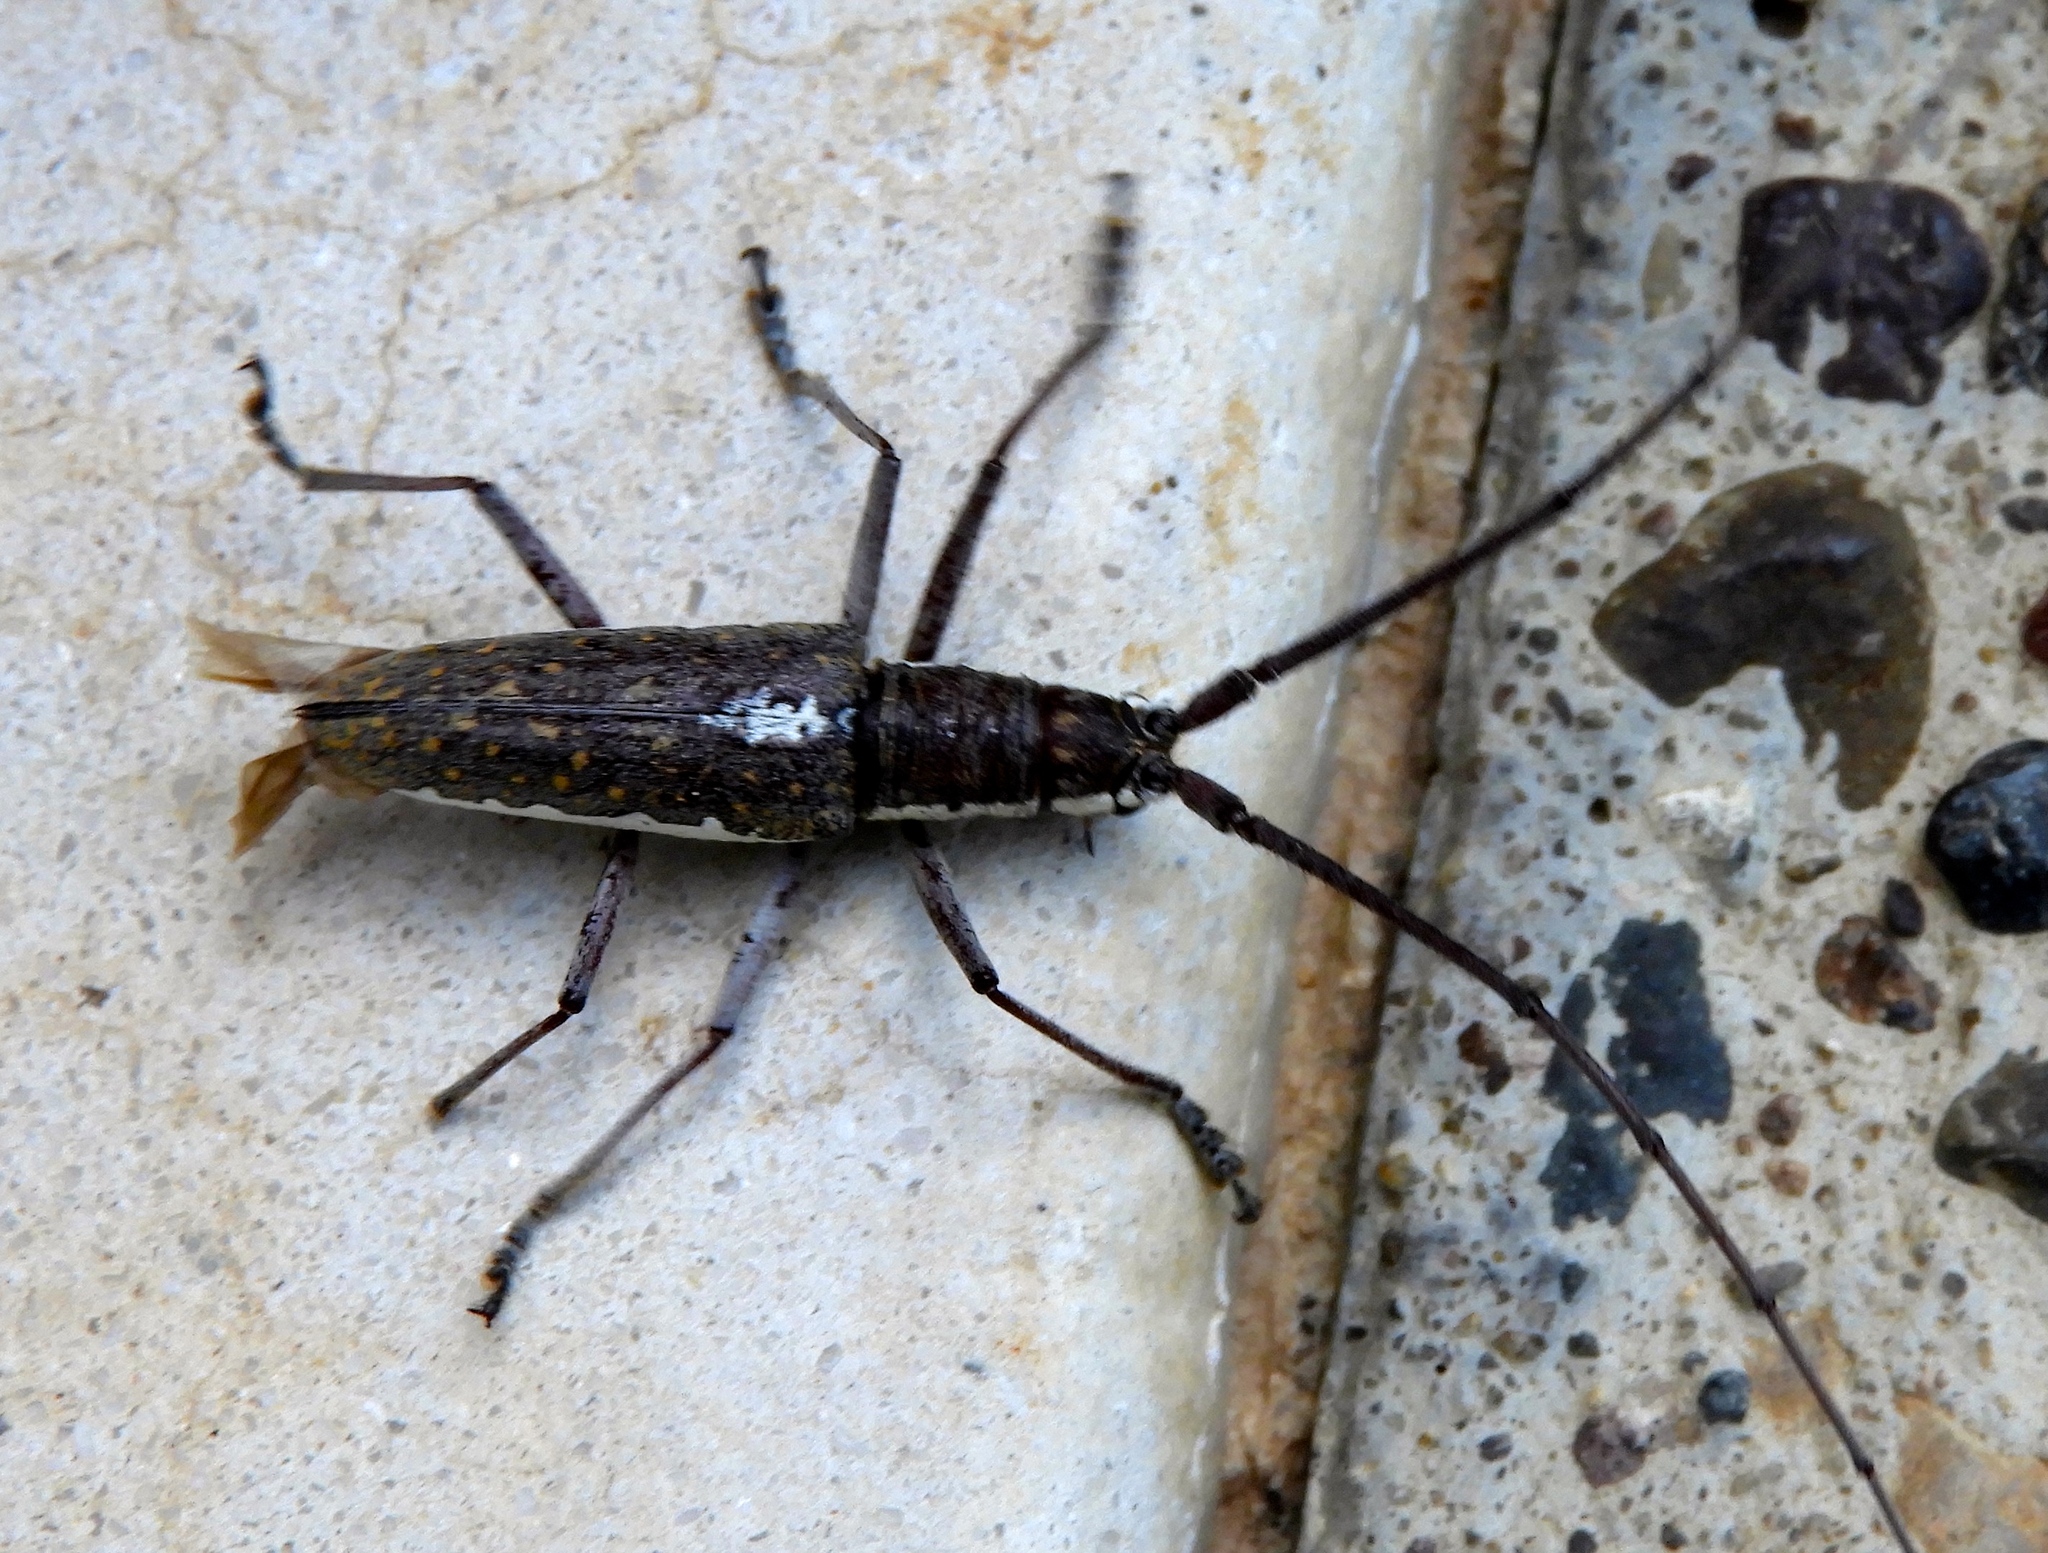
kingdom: Animalia
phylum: Arthropoda
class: Insecta
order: Coleoptera
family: Cerambycidae
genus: Neoptychodes
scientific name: Neoptychodes trilineatus
